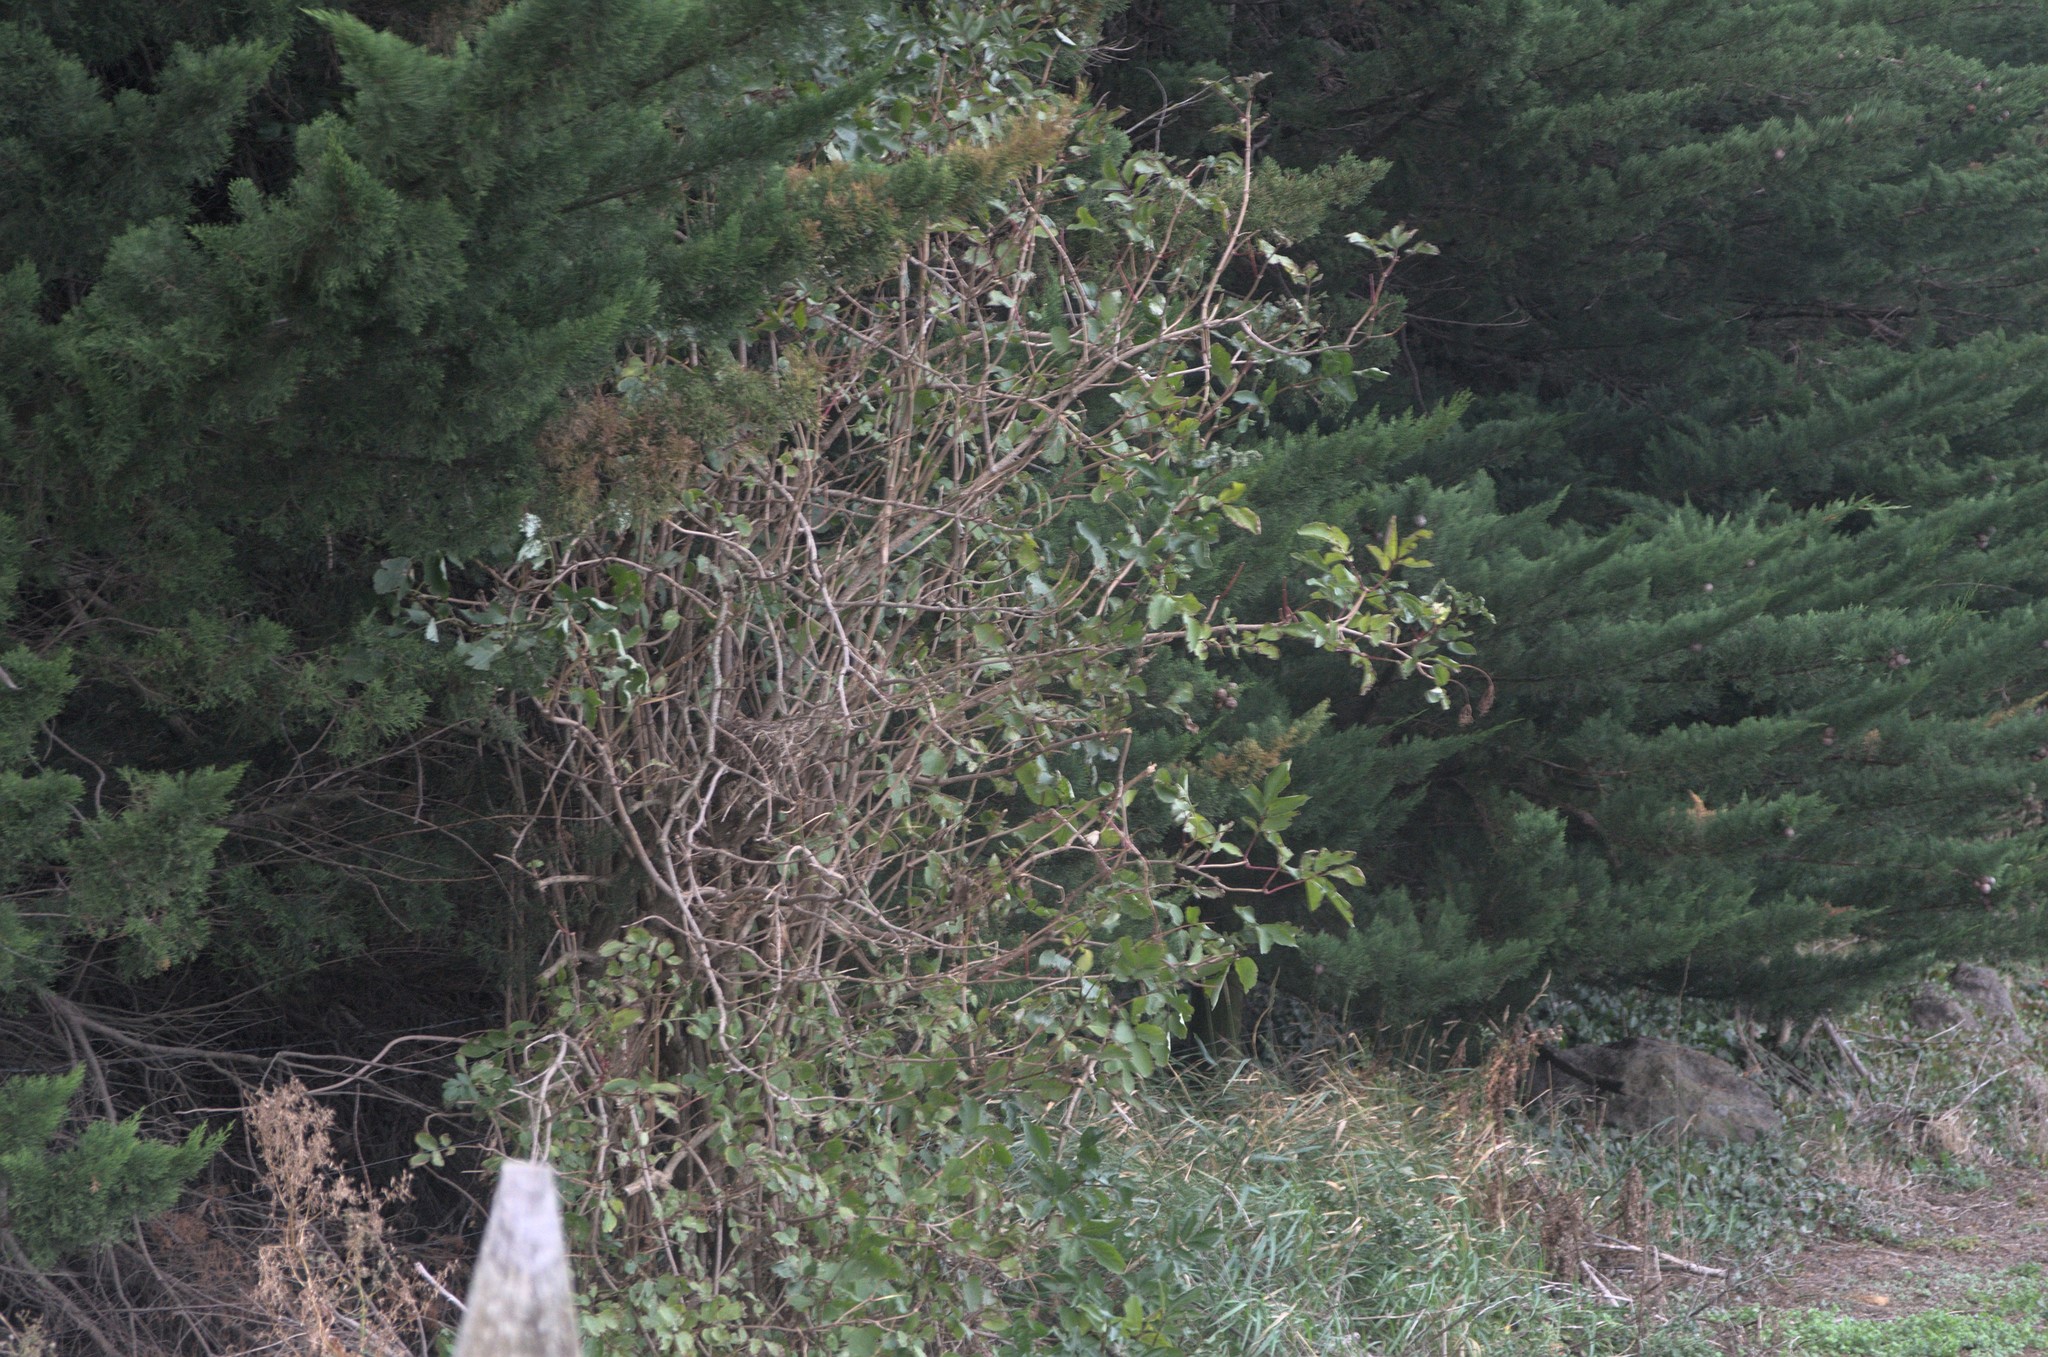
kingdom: Plantae
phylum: Tracheophyta
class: Magnoliopsida
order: Dipsacales
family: Viburnaceae
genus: Sambucus
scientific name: Sambucus nigra
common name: Elder
